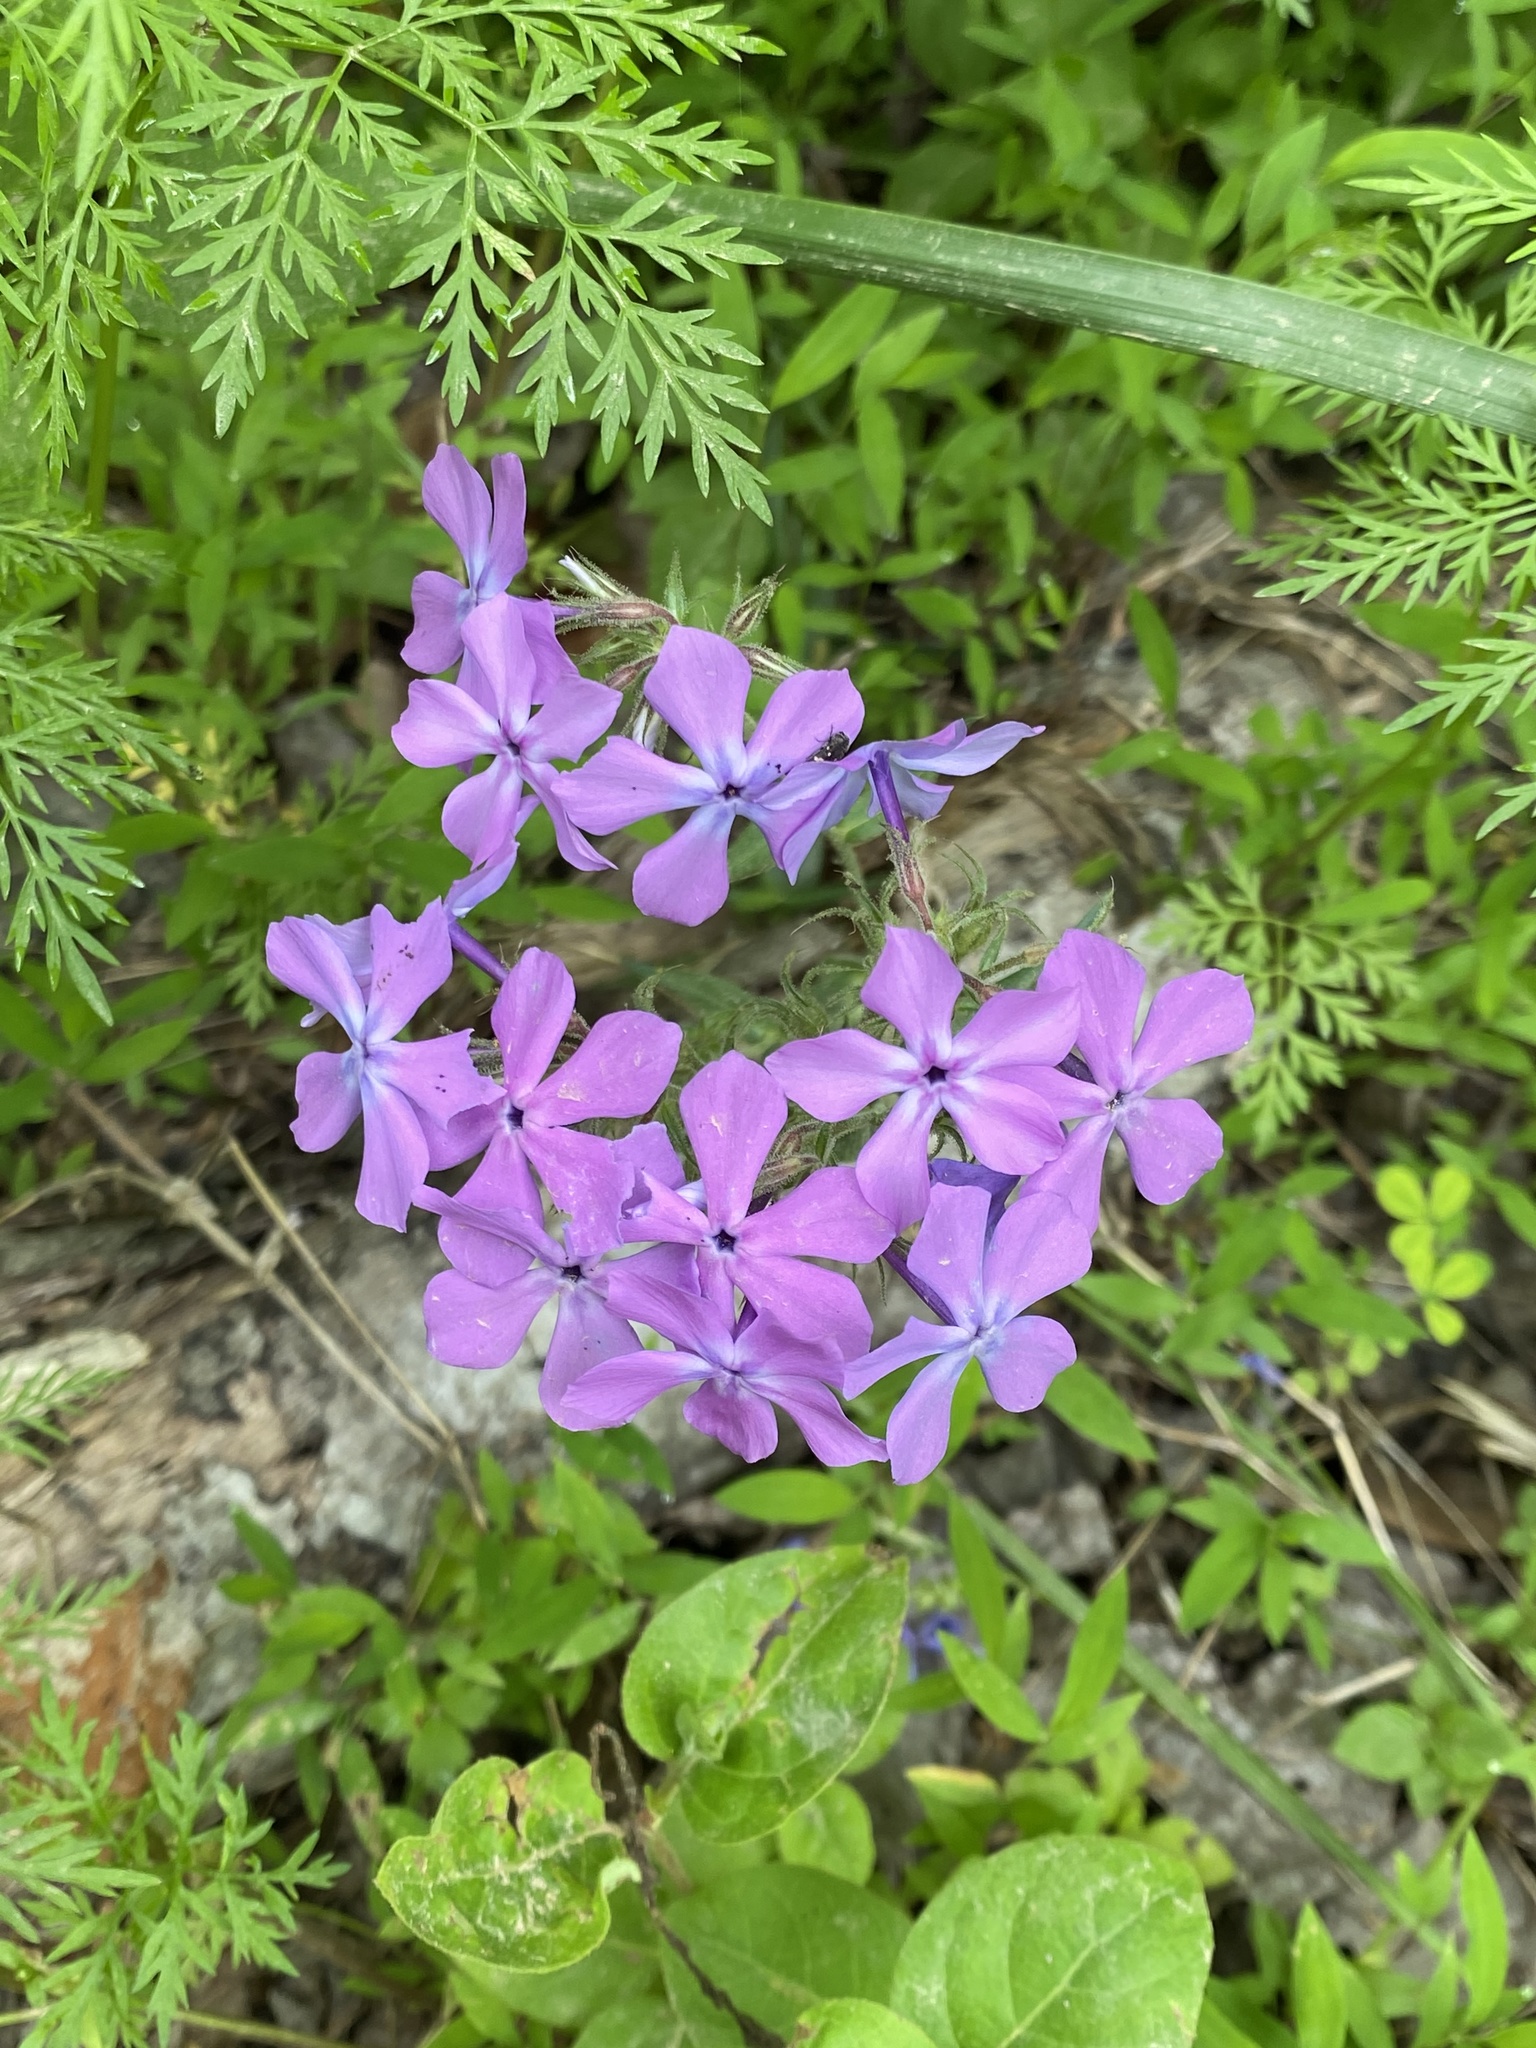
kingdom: Plantae
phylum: Tracheophyta
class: Magnoliopsida
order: Ericales
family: Polemoniaceae
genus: Phlox
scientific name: Phlox divaricata
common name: Blue phlox
